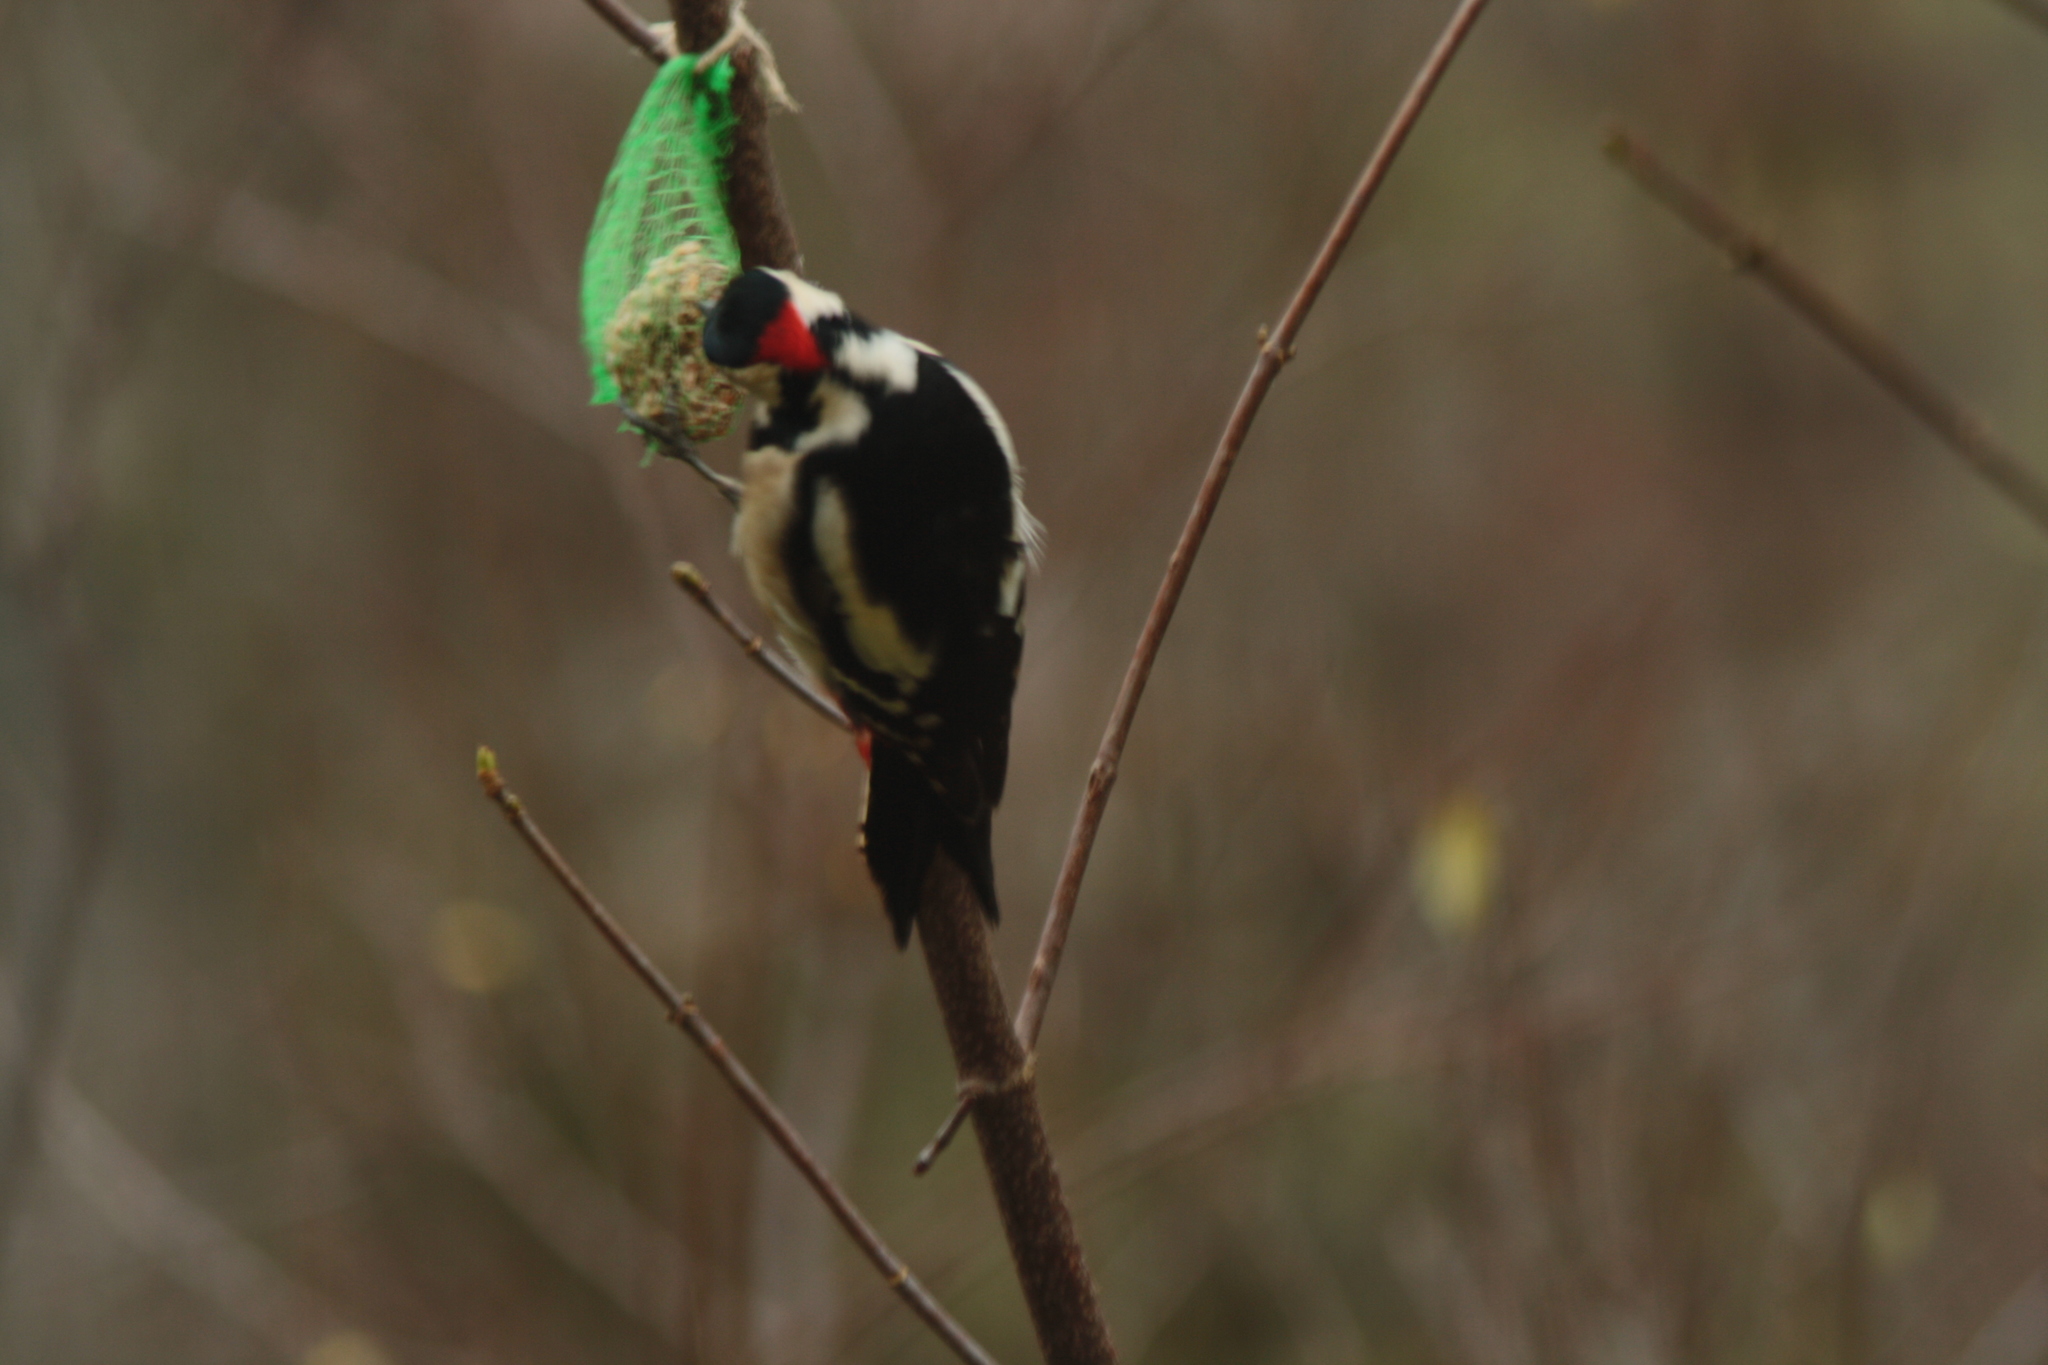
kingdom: Animalia
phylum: Chordata
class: Aves
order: Piciformes
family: Picidae
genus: Dendrocopos
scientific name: Dendrocopos major
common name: Great spotted woodpecker
